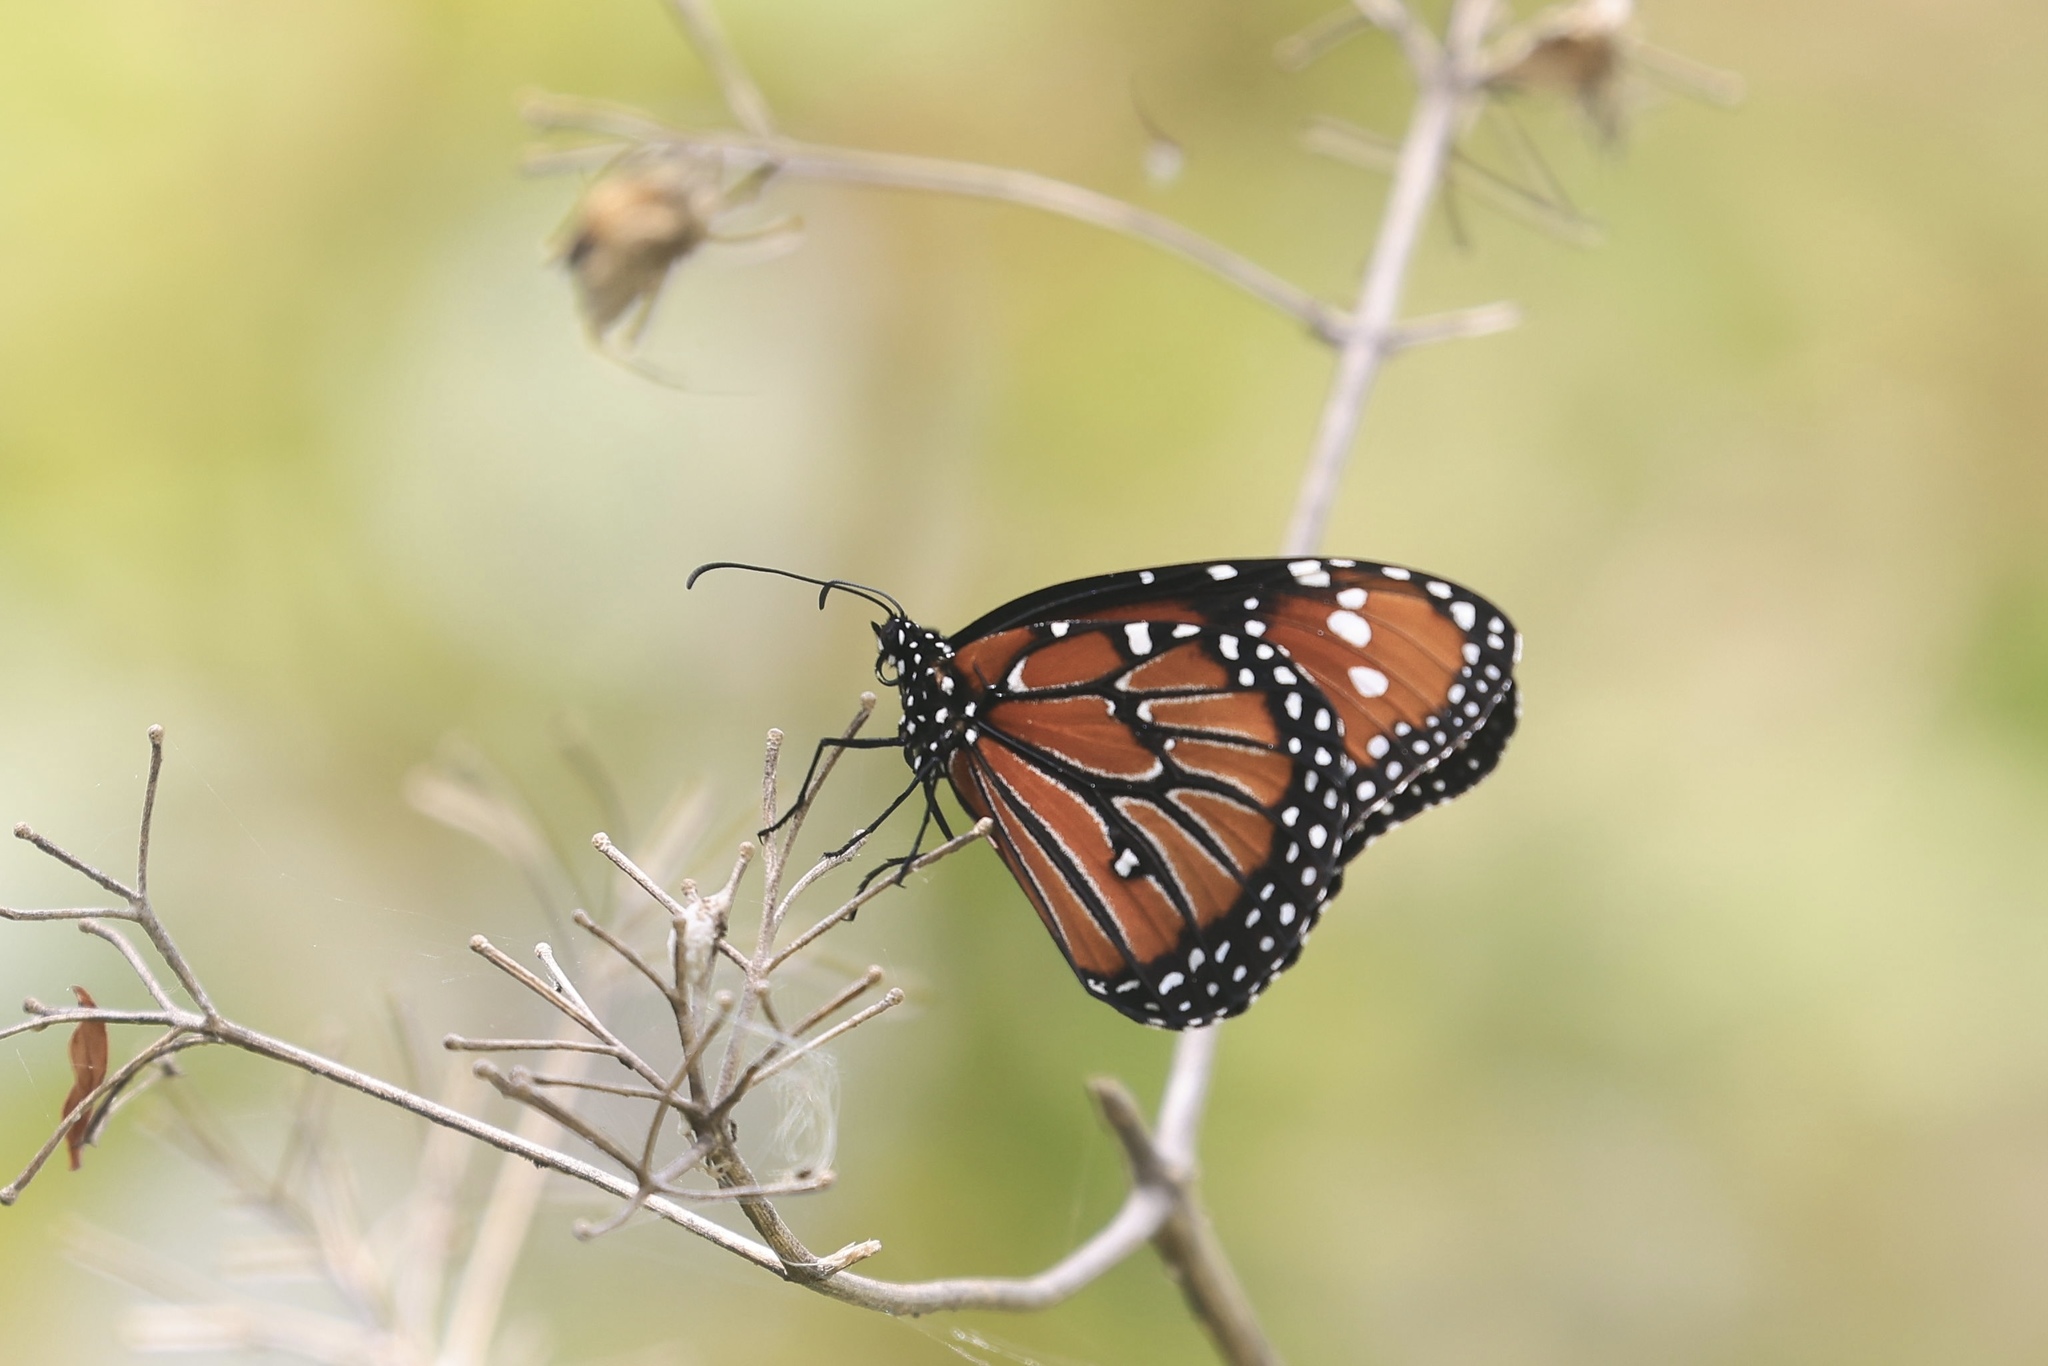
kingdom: Animalia
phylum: Arthropoda
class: Insecta
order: Lepidoptera
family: Nymphalidae
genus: Danaus
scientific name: Danaus gilippus
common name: Queen
